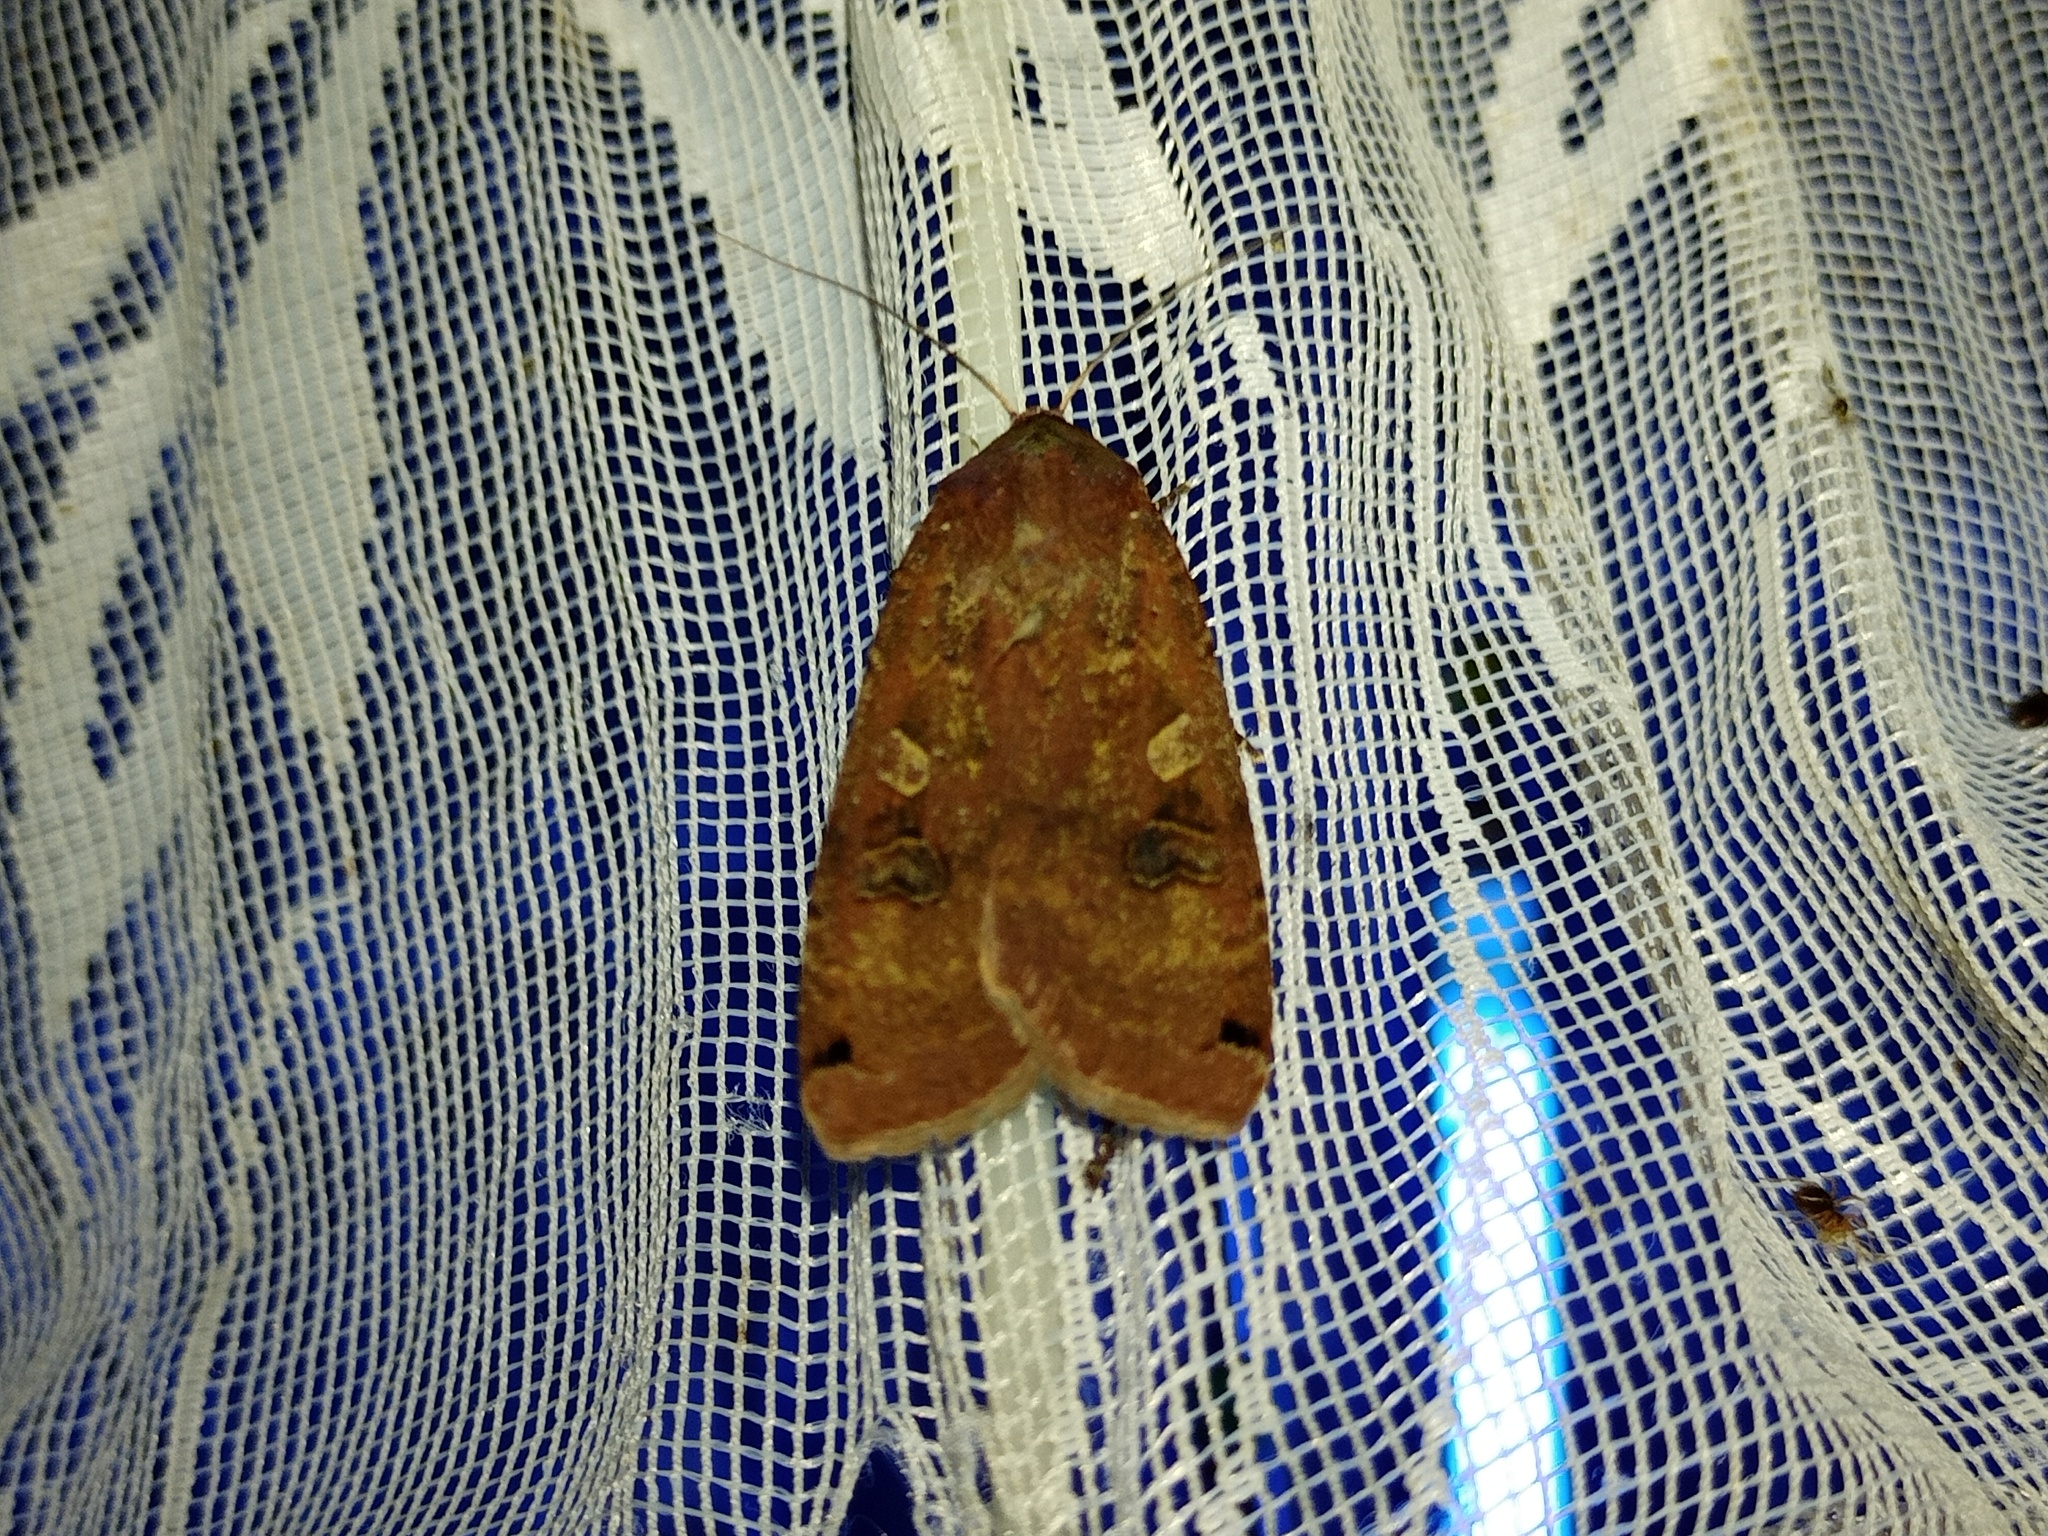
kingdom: Animalia
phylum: Arthropoda
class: Insecta
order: Lepidoptera
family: Noctuidae
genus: Noctua
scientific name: Noctua pronuba
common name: Large yellow underwing
